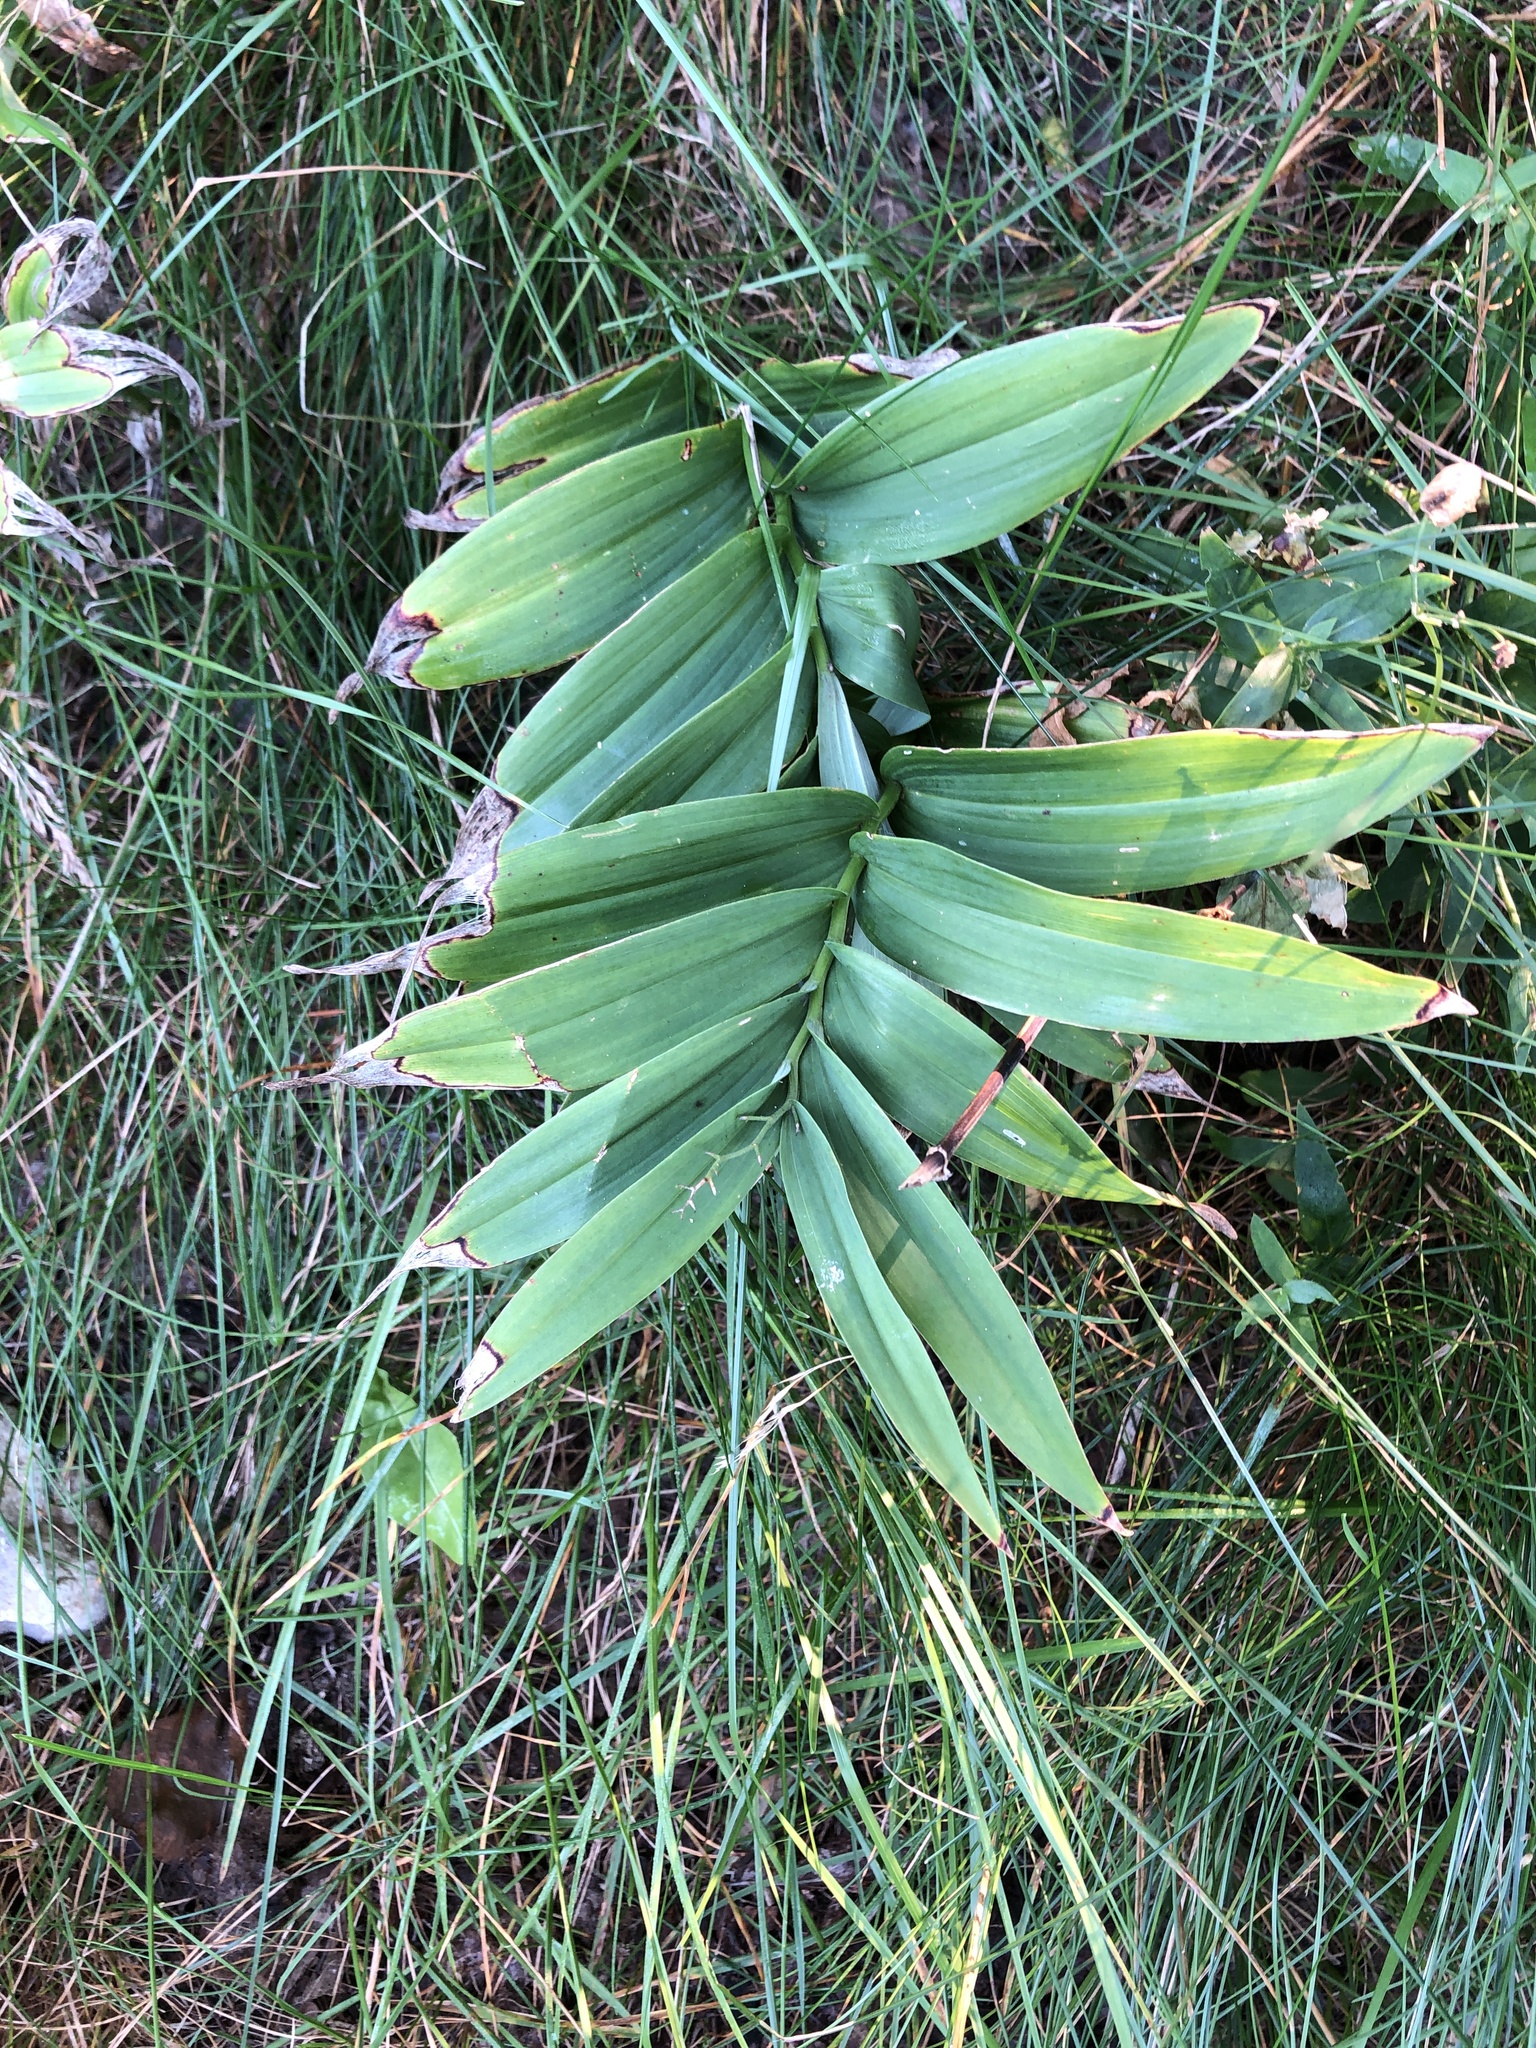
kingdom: Plantae
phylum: Tracheophyta
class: Liliopsida
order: Asparagales
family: Asparagaceae
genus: Maianthemum
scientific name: Maianthemum stellatum
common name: Little false solomon's seal
